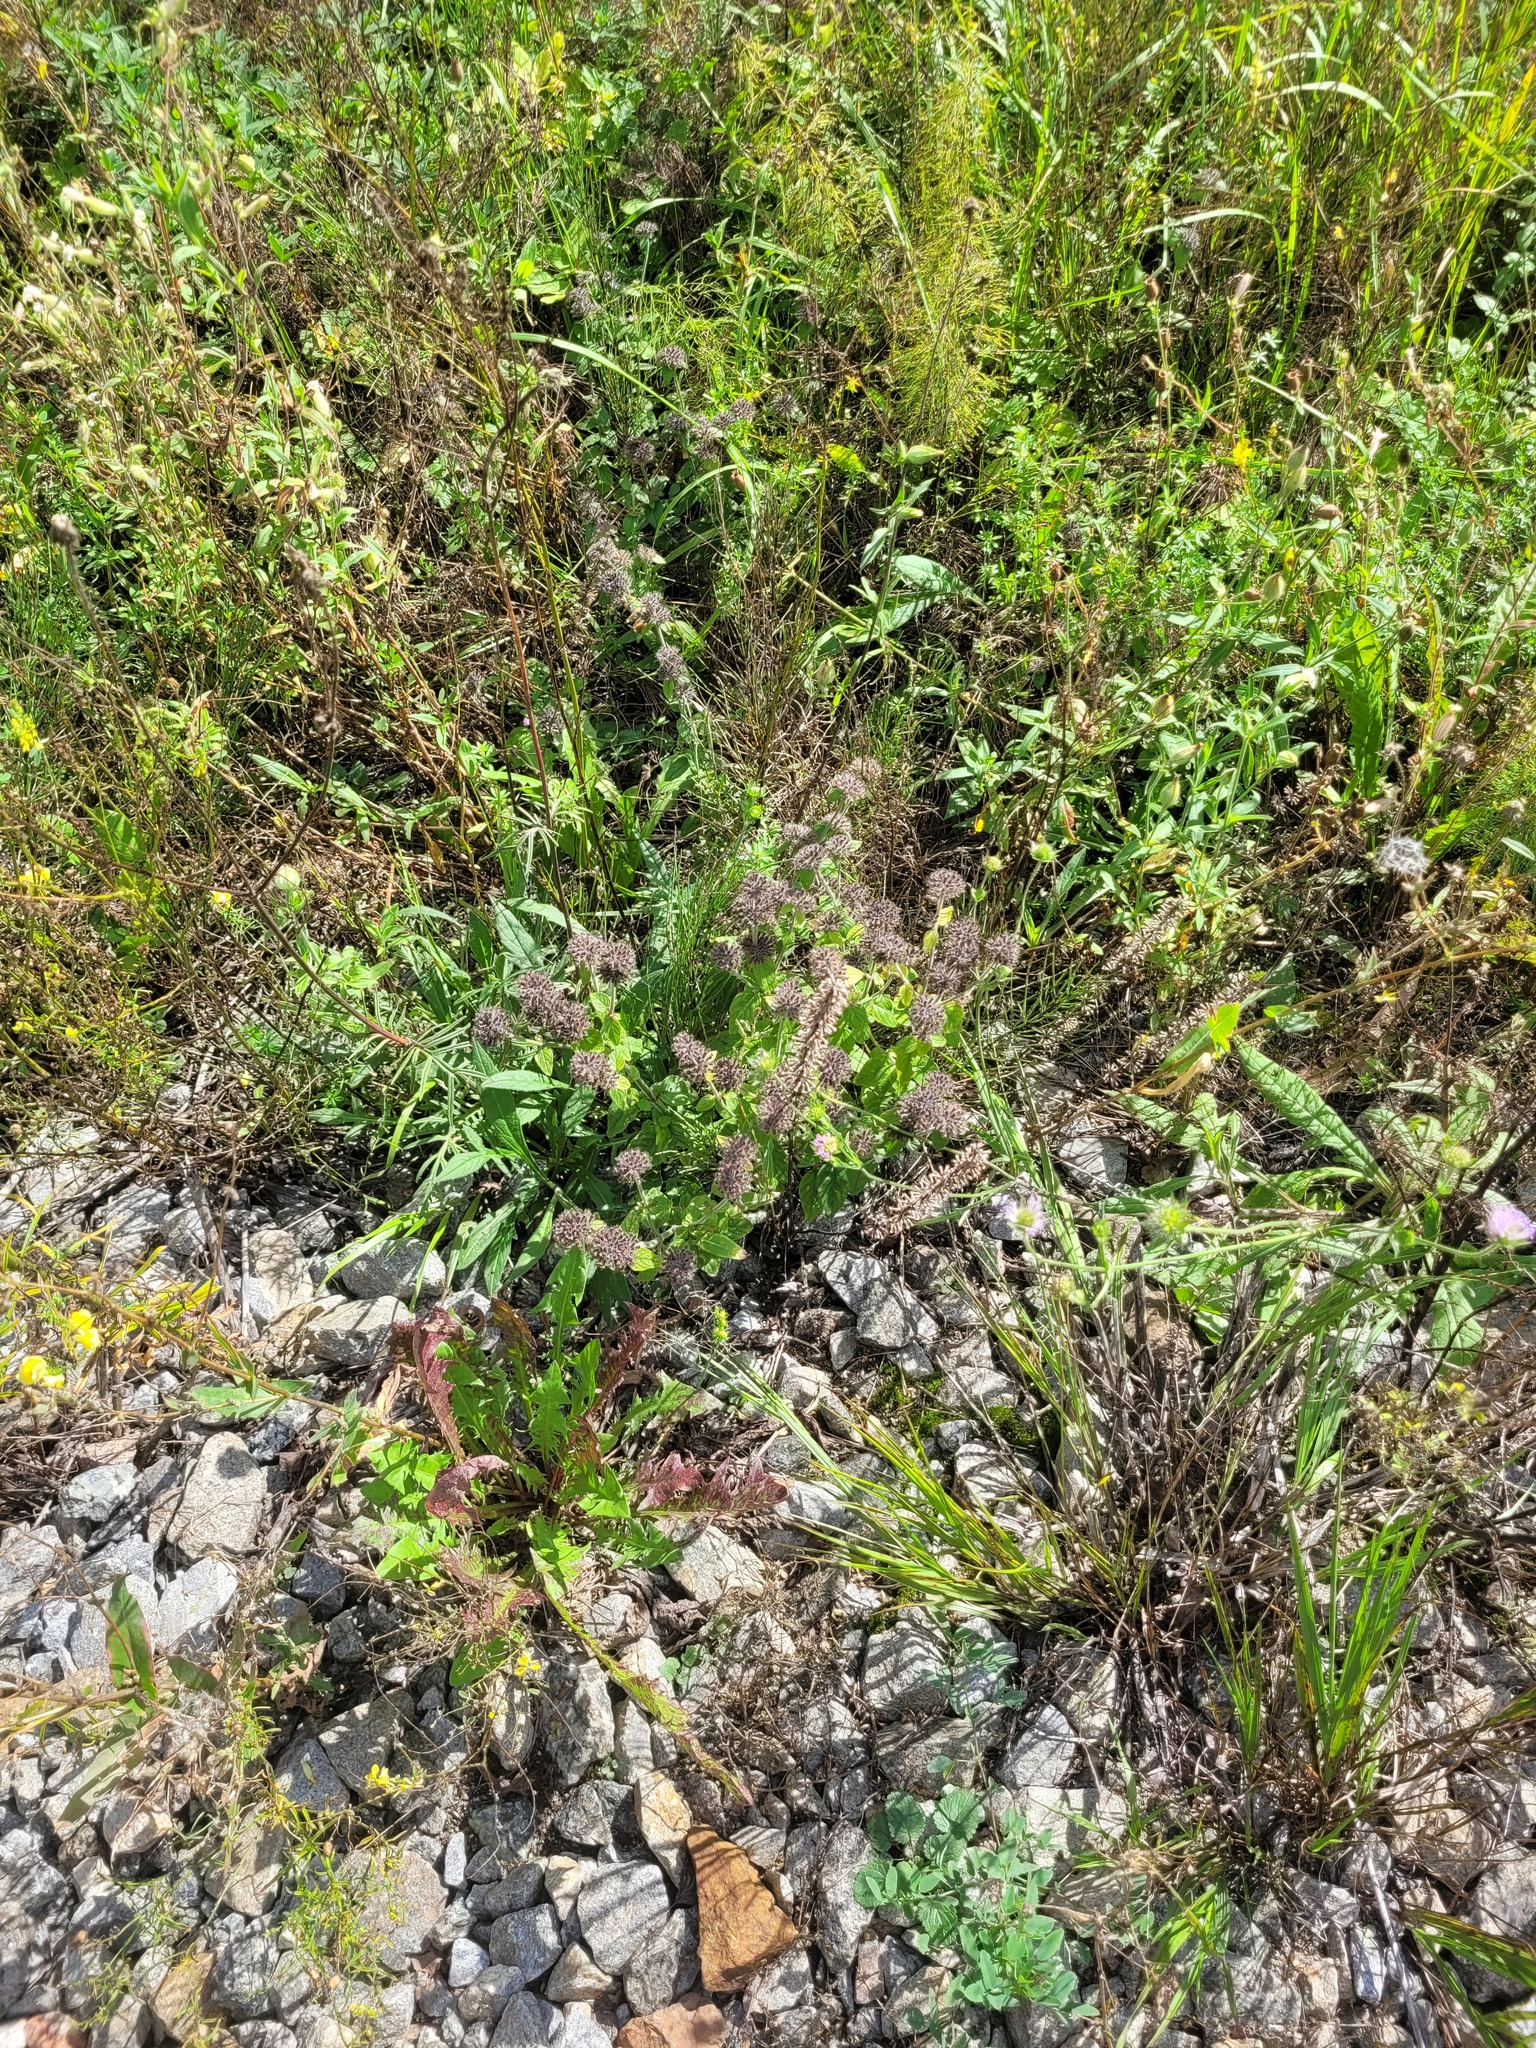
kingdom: Plantae
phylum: Tracheophyta
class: Magnoliopsida
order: Lamiales
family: Lamiaceae
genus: Clinopodium
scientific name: Clinopodium vulgare
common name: Wild basil
